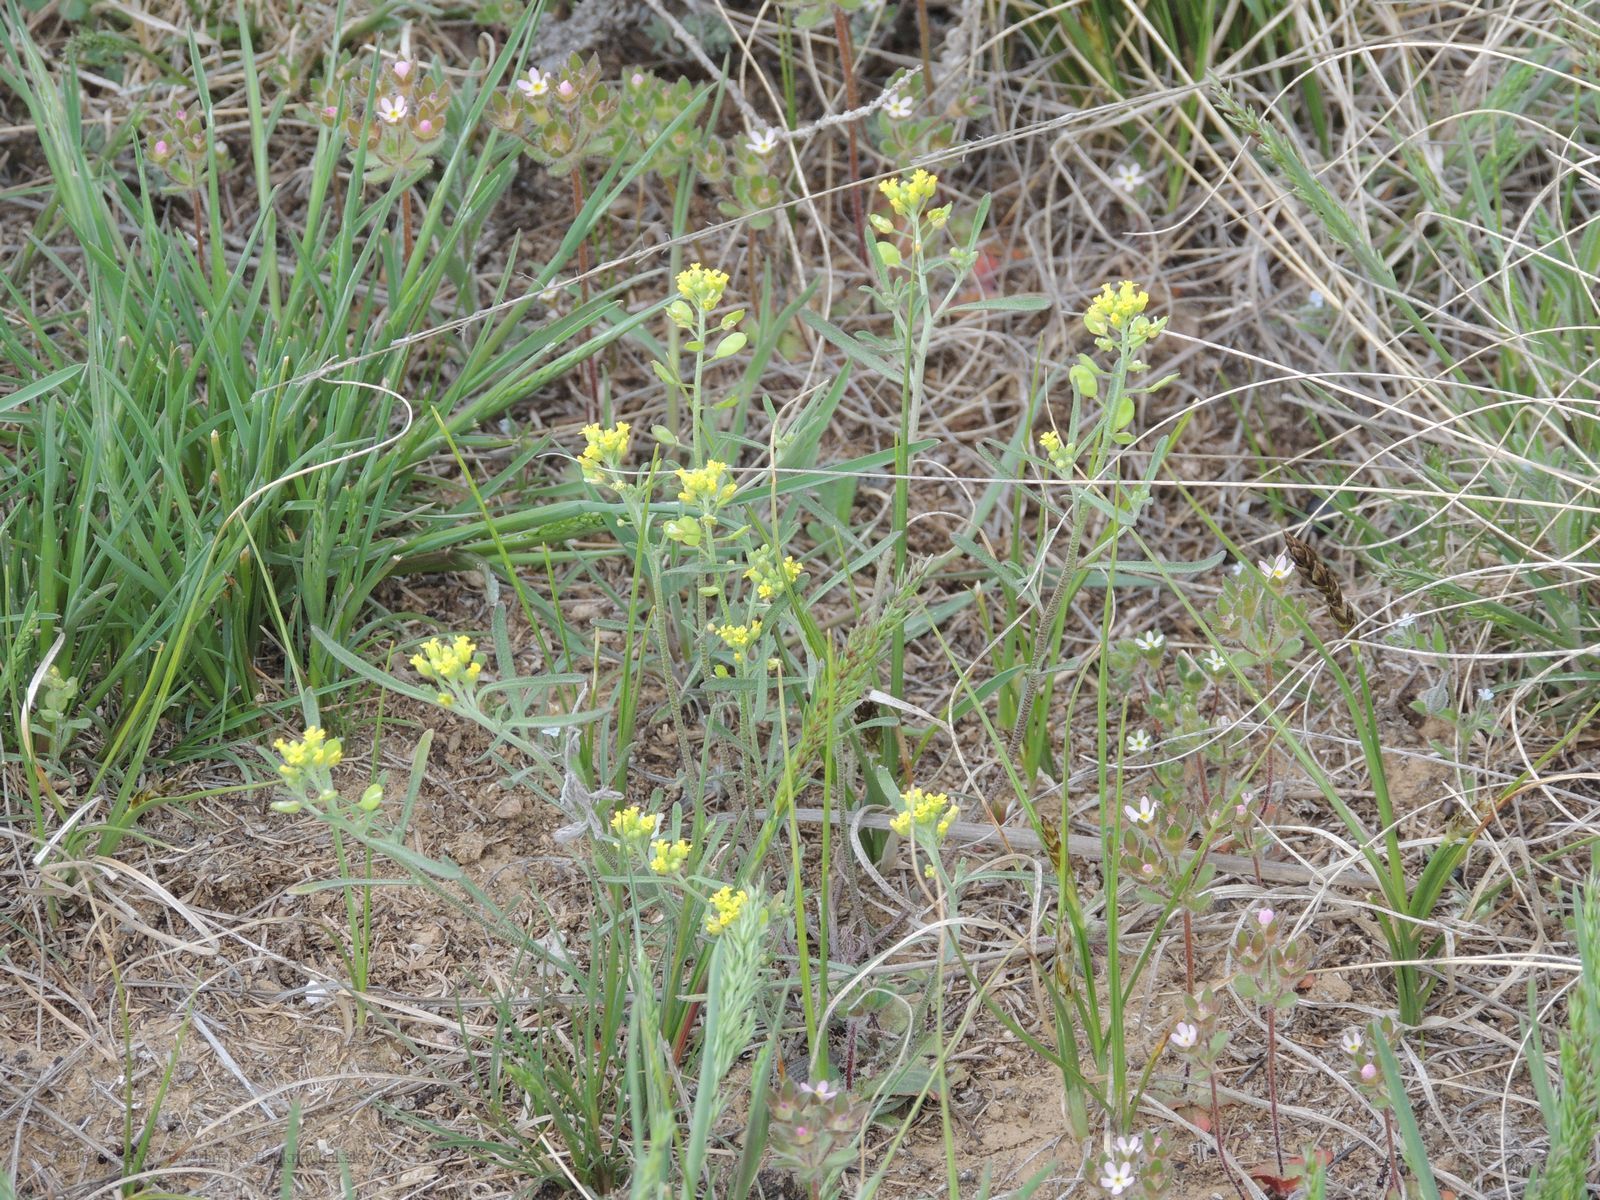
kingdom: Plantae
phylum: Tracheophyta
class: Magnoliopsida
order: Brassicales
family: Brassicaceae
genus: Meniocus
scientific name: Meniocus linifolius
